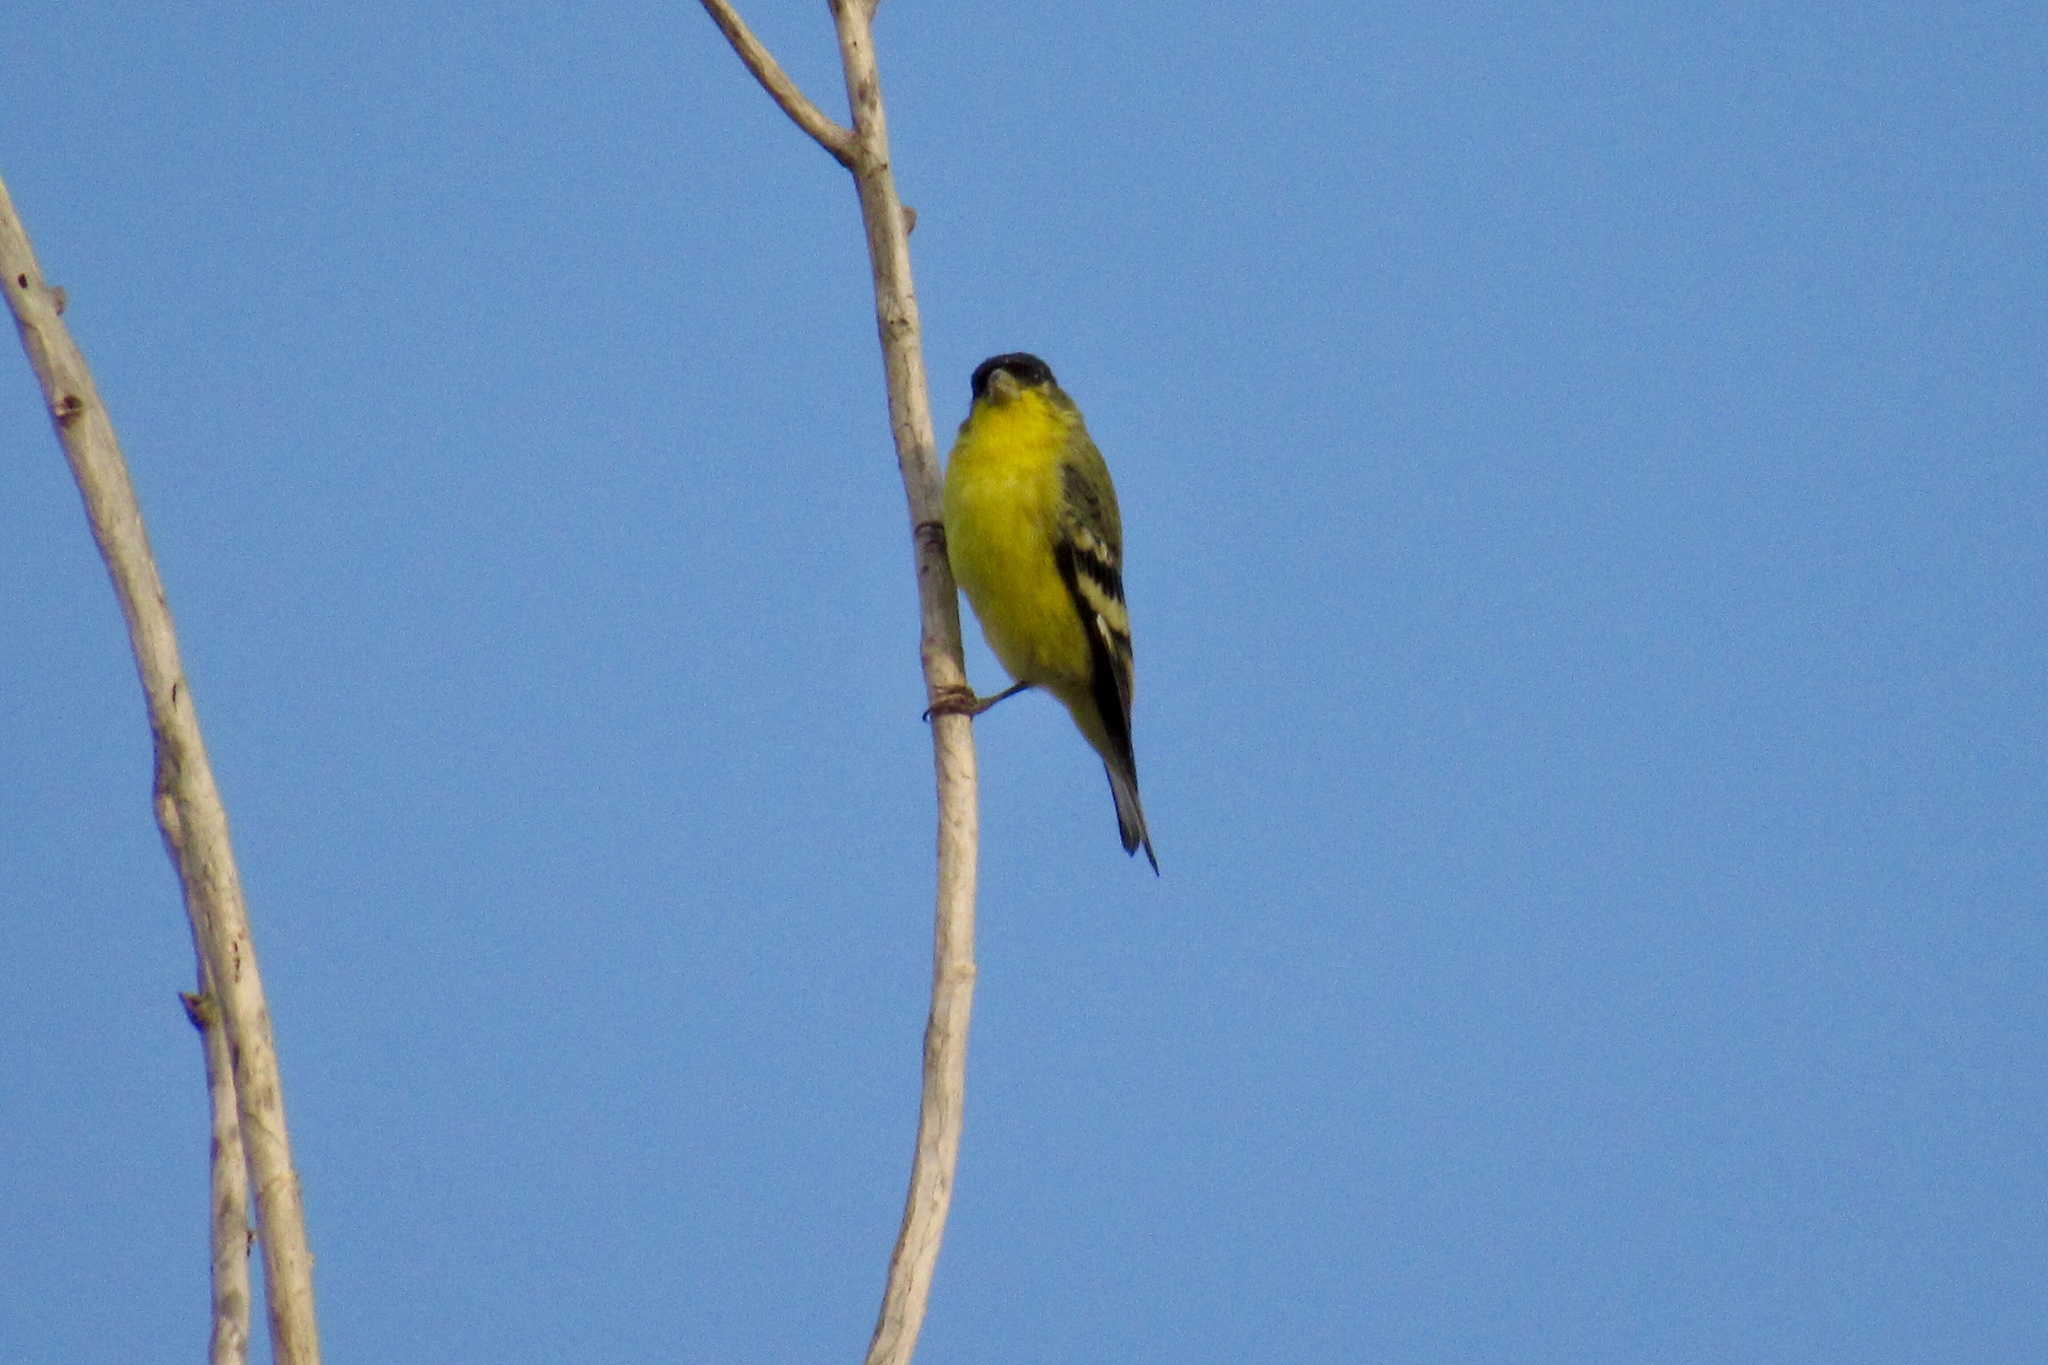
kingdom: Animalia
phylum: Chordata
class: Aves
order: Passeriformes
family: Fringillidae
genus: Spinus
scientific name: Spinus psaltria
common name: Lesser goldfinch
